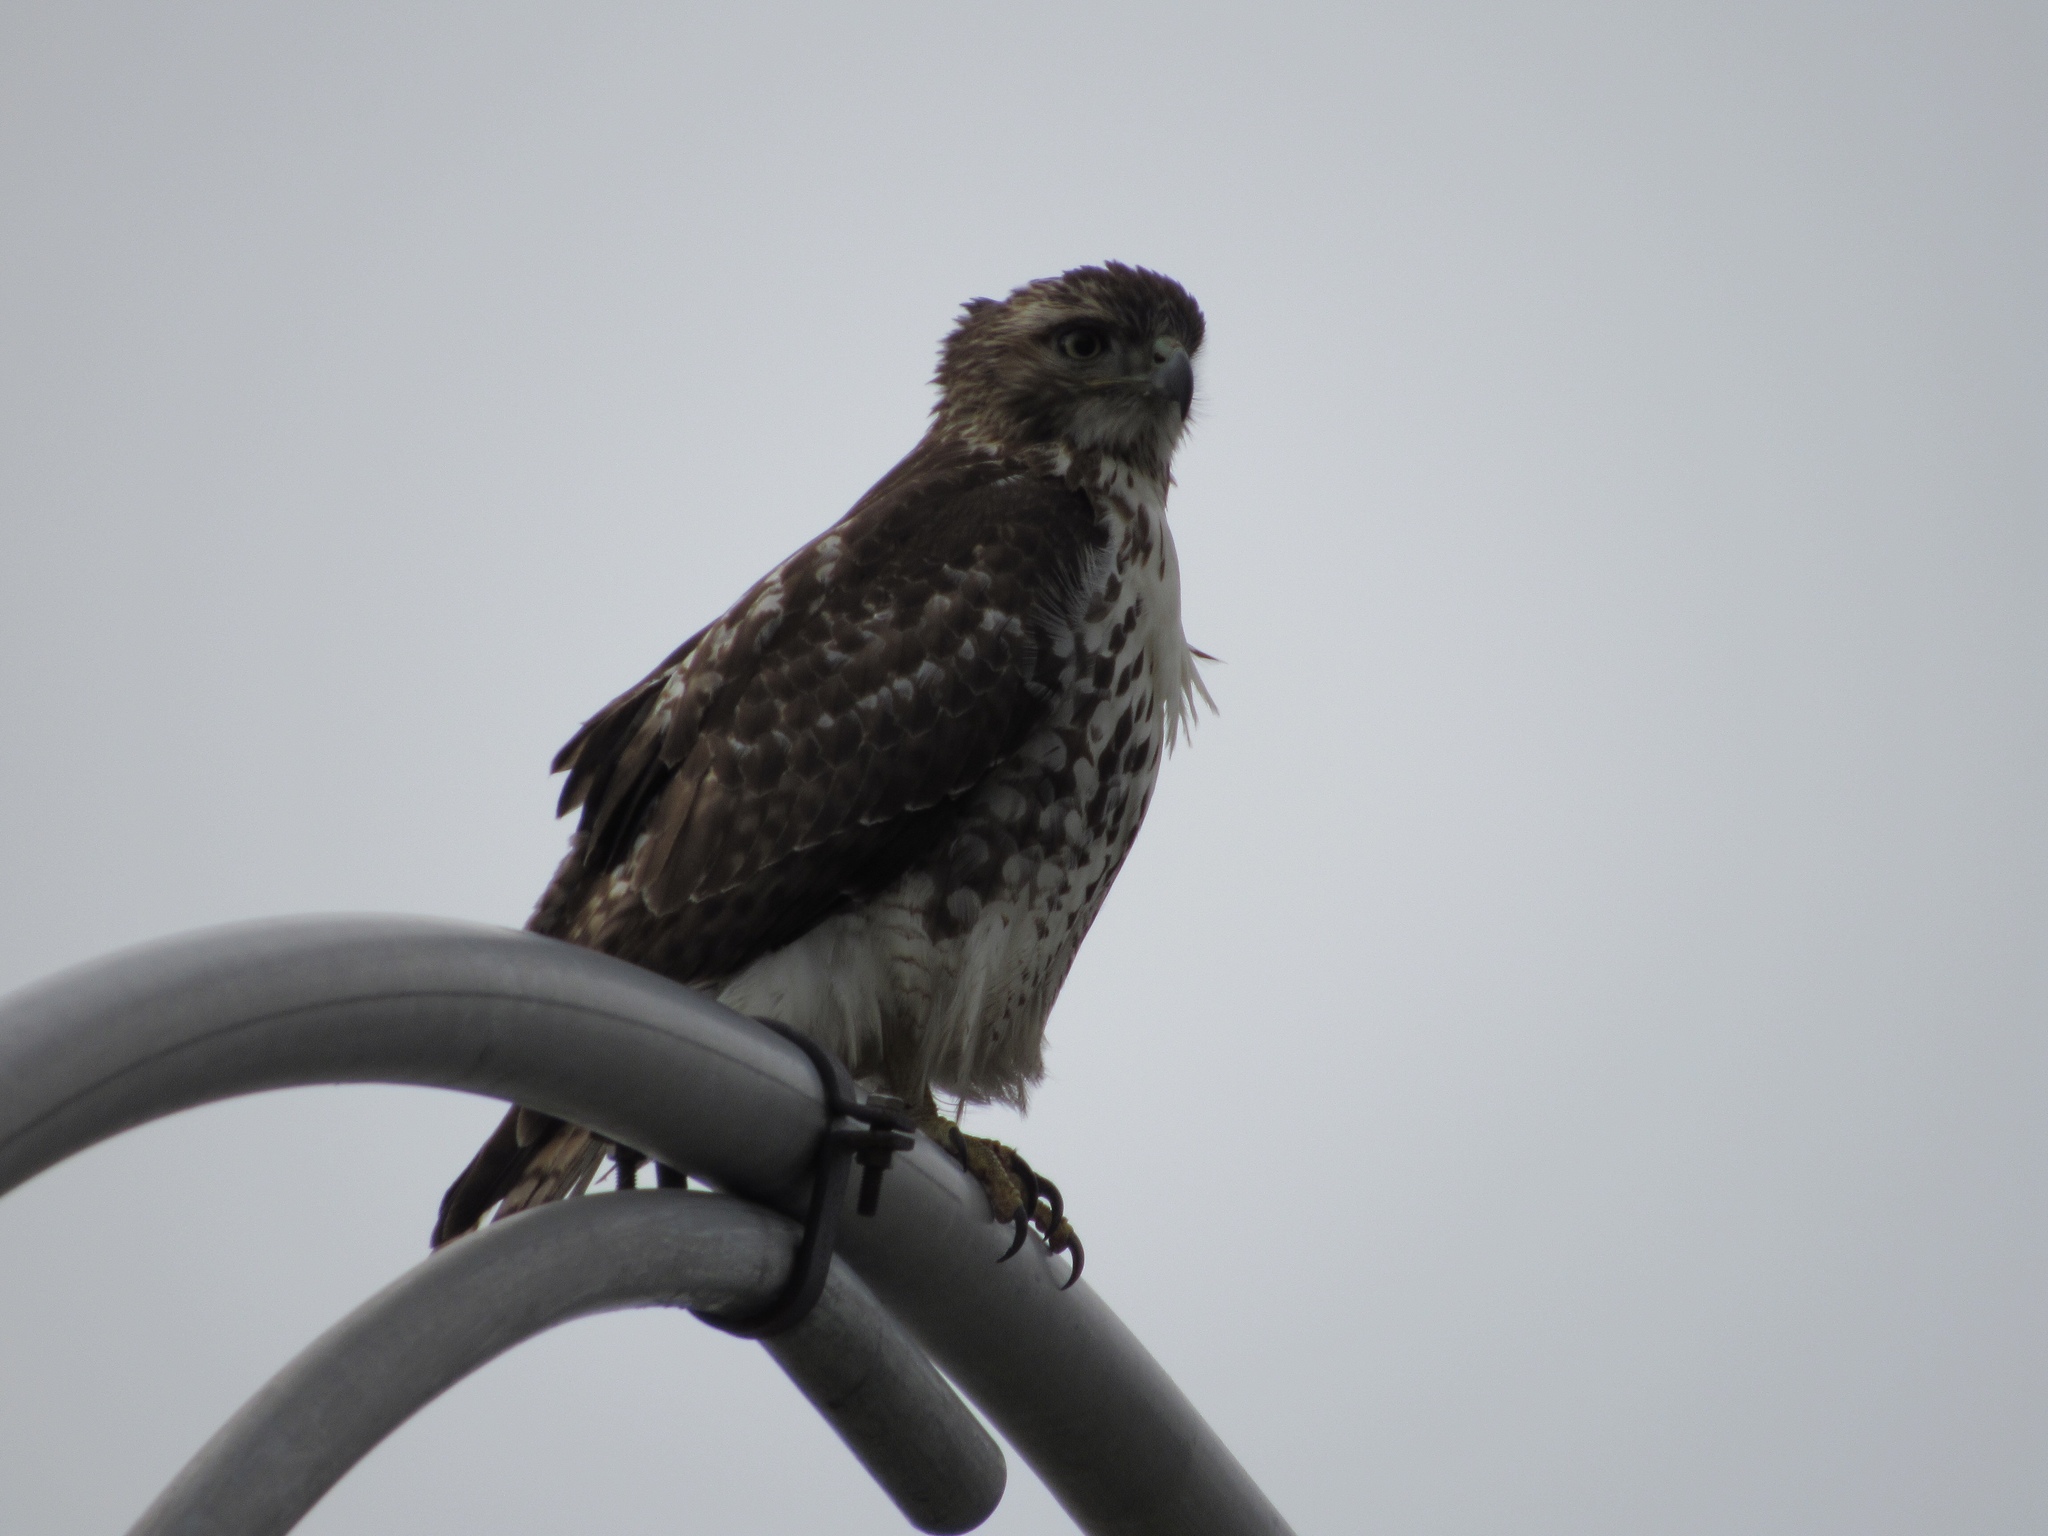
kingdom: Animalia
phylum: Chordata
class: Aves
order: Accipitriformes
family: Accipitridae
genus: Buteo
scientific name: Buteo jamaicensis
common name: Red-tailed hawk
